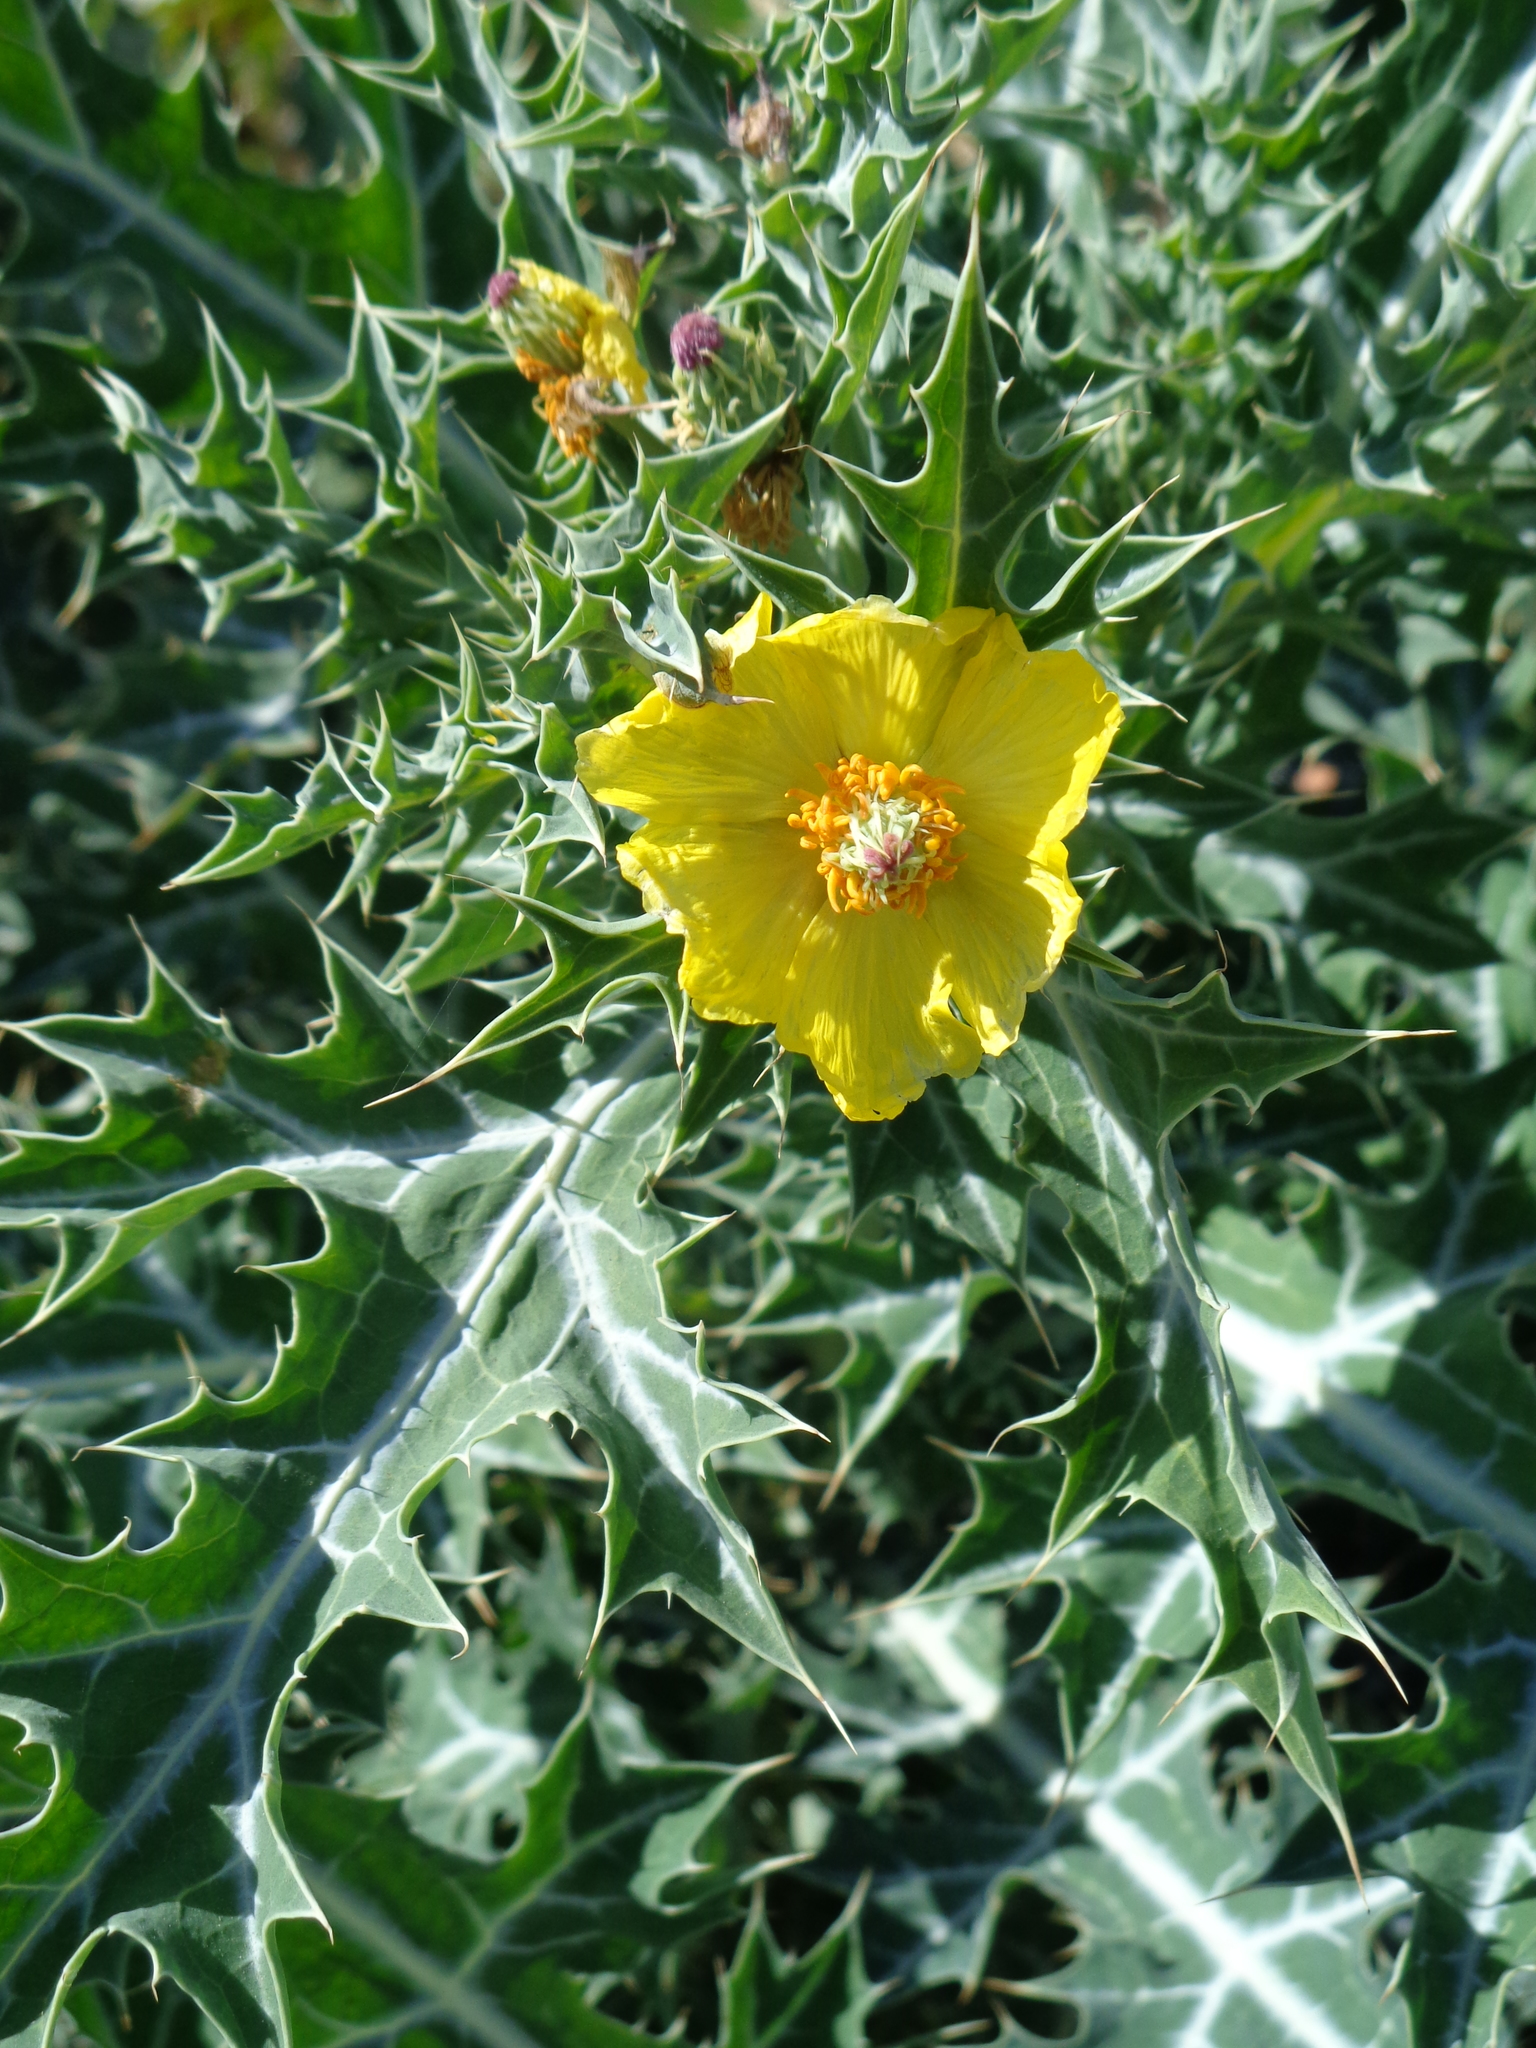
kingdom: Plantae
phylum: Tracheophyta
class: Magnoliopsida
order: Ranunculales
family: Papaveraceae
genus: Argemone
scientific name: Argemone mexicana
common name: Mexican poppy
